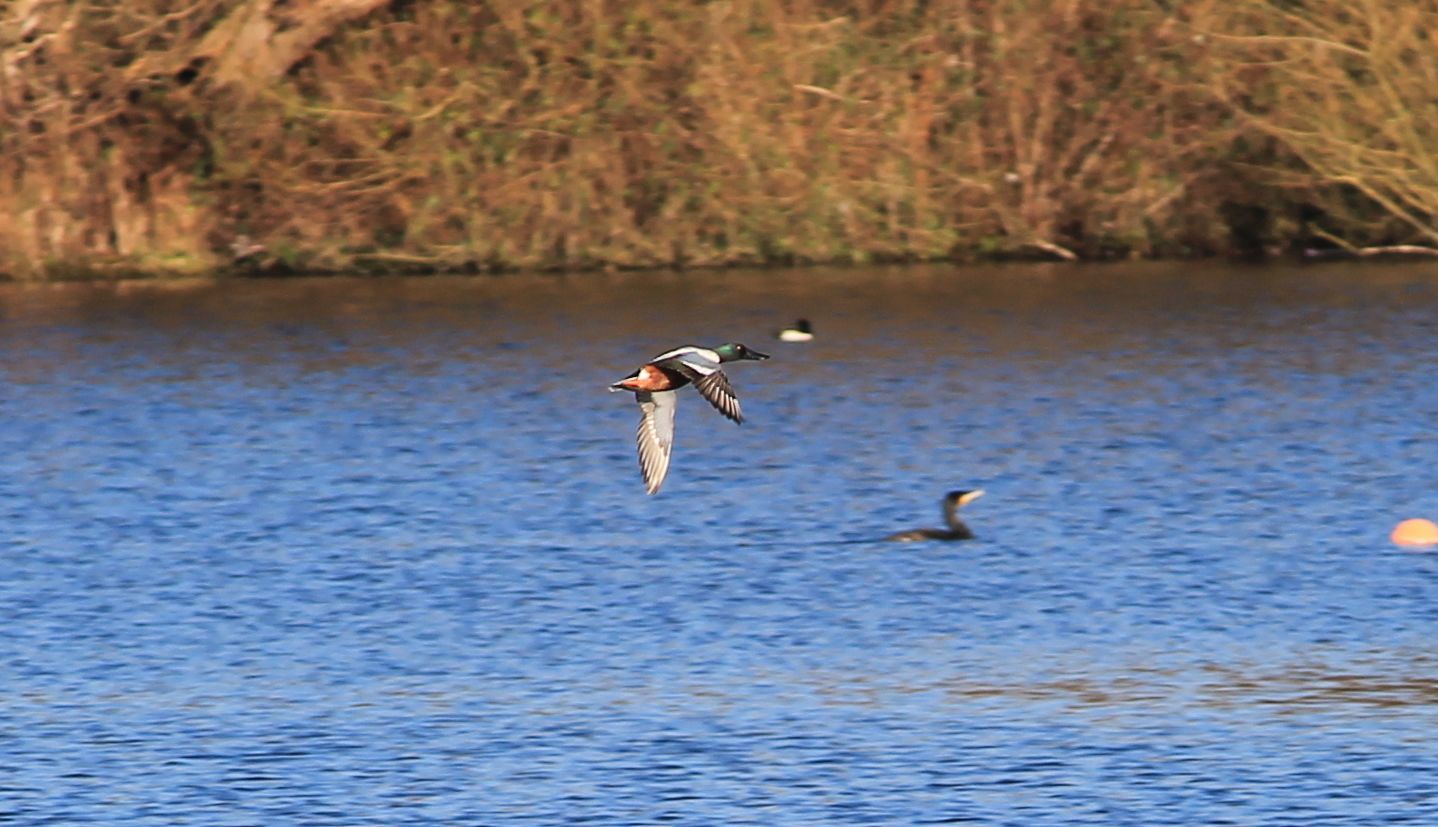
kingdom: Animalia
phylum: Chordata
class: Aves
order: Anseriformes
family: Anatidae
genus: Spatula
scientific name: Spatula clypeata
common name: Northern shoveler
